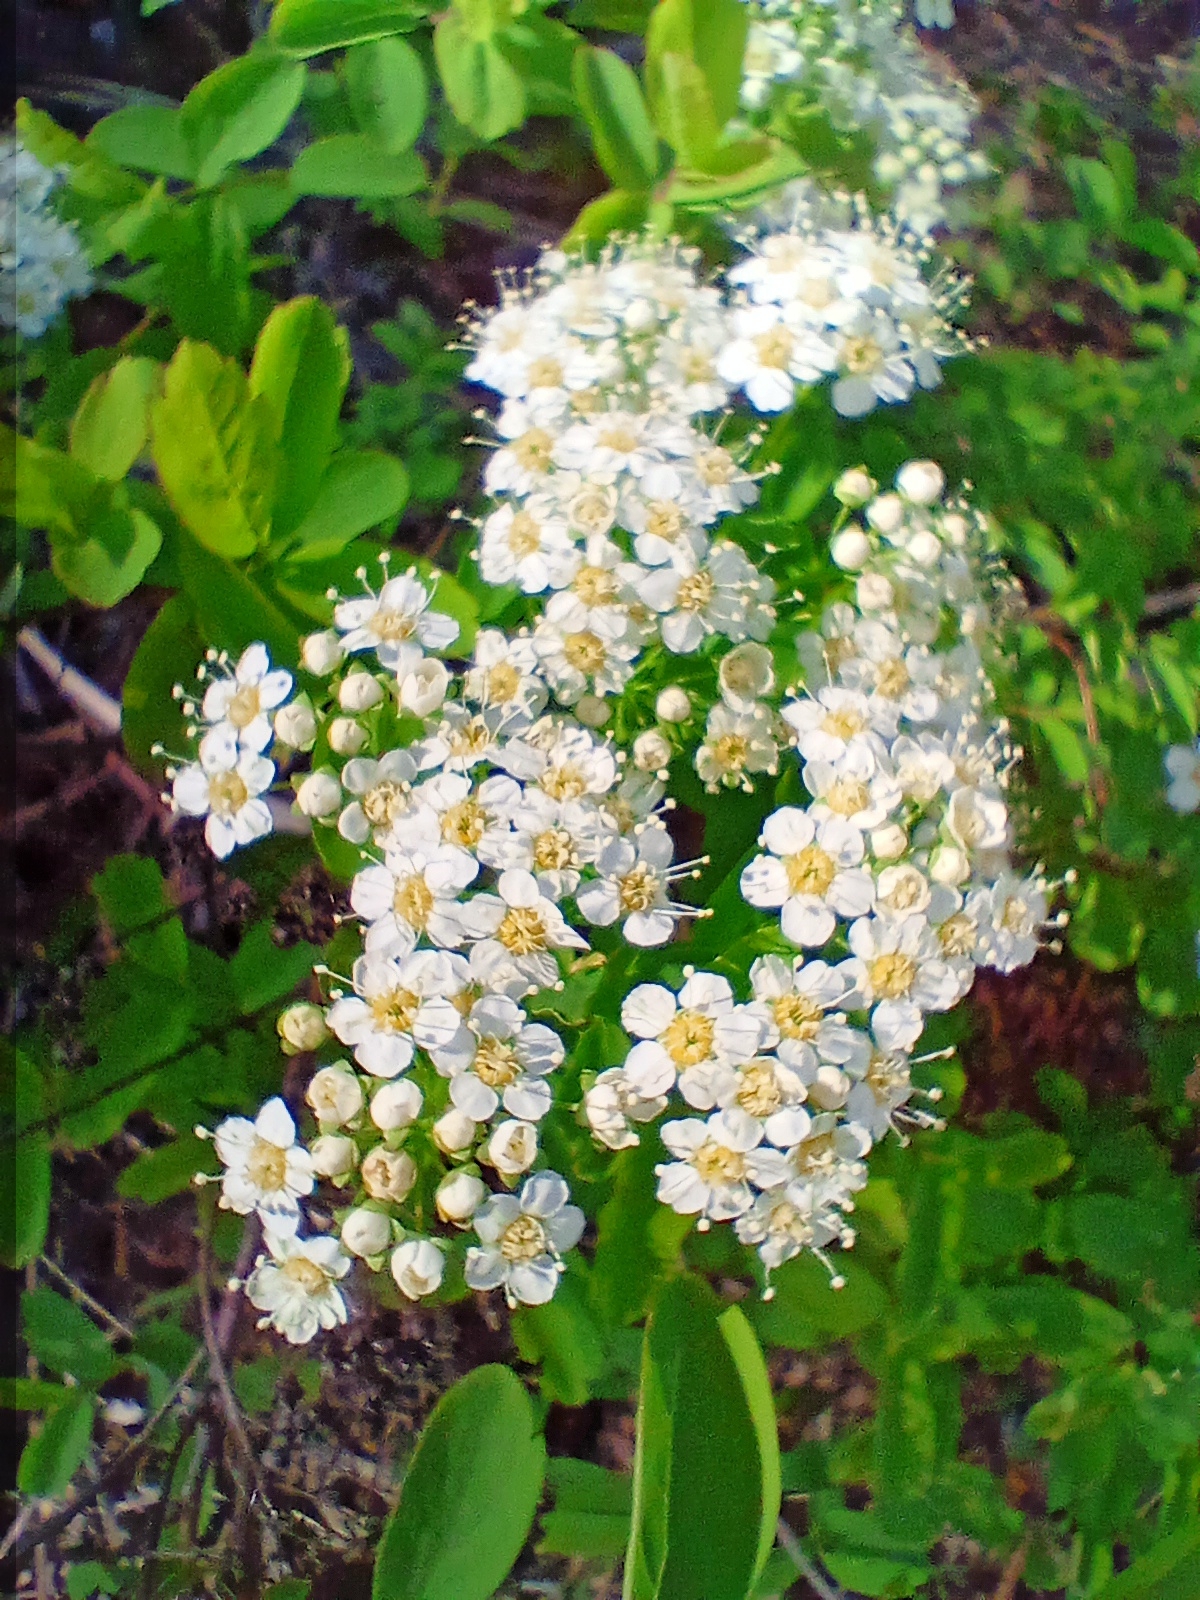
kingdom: Plantae
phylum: Tracheophyta
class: Magnoliopsida
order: Rosales
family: Rosaceae
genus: Spiraea
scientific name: Spiraea media
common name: Russian spiraea
